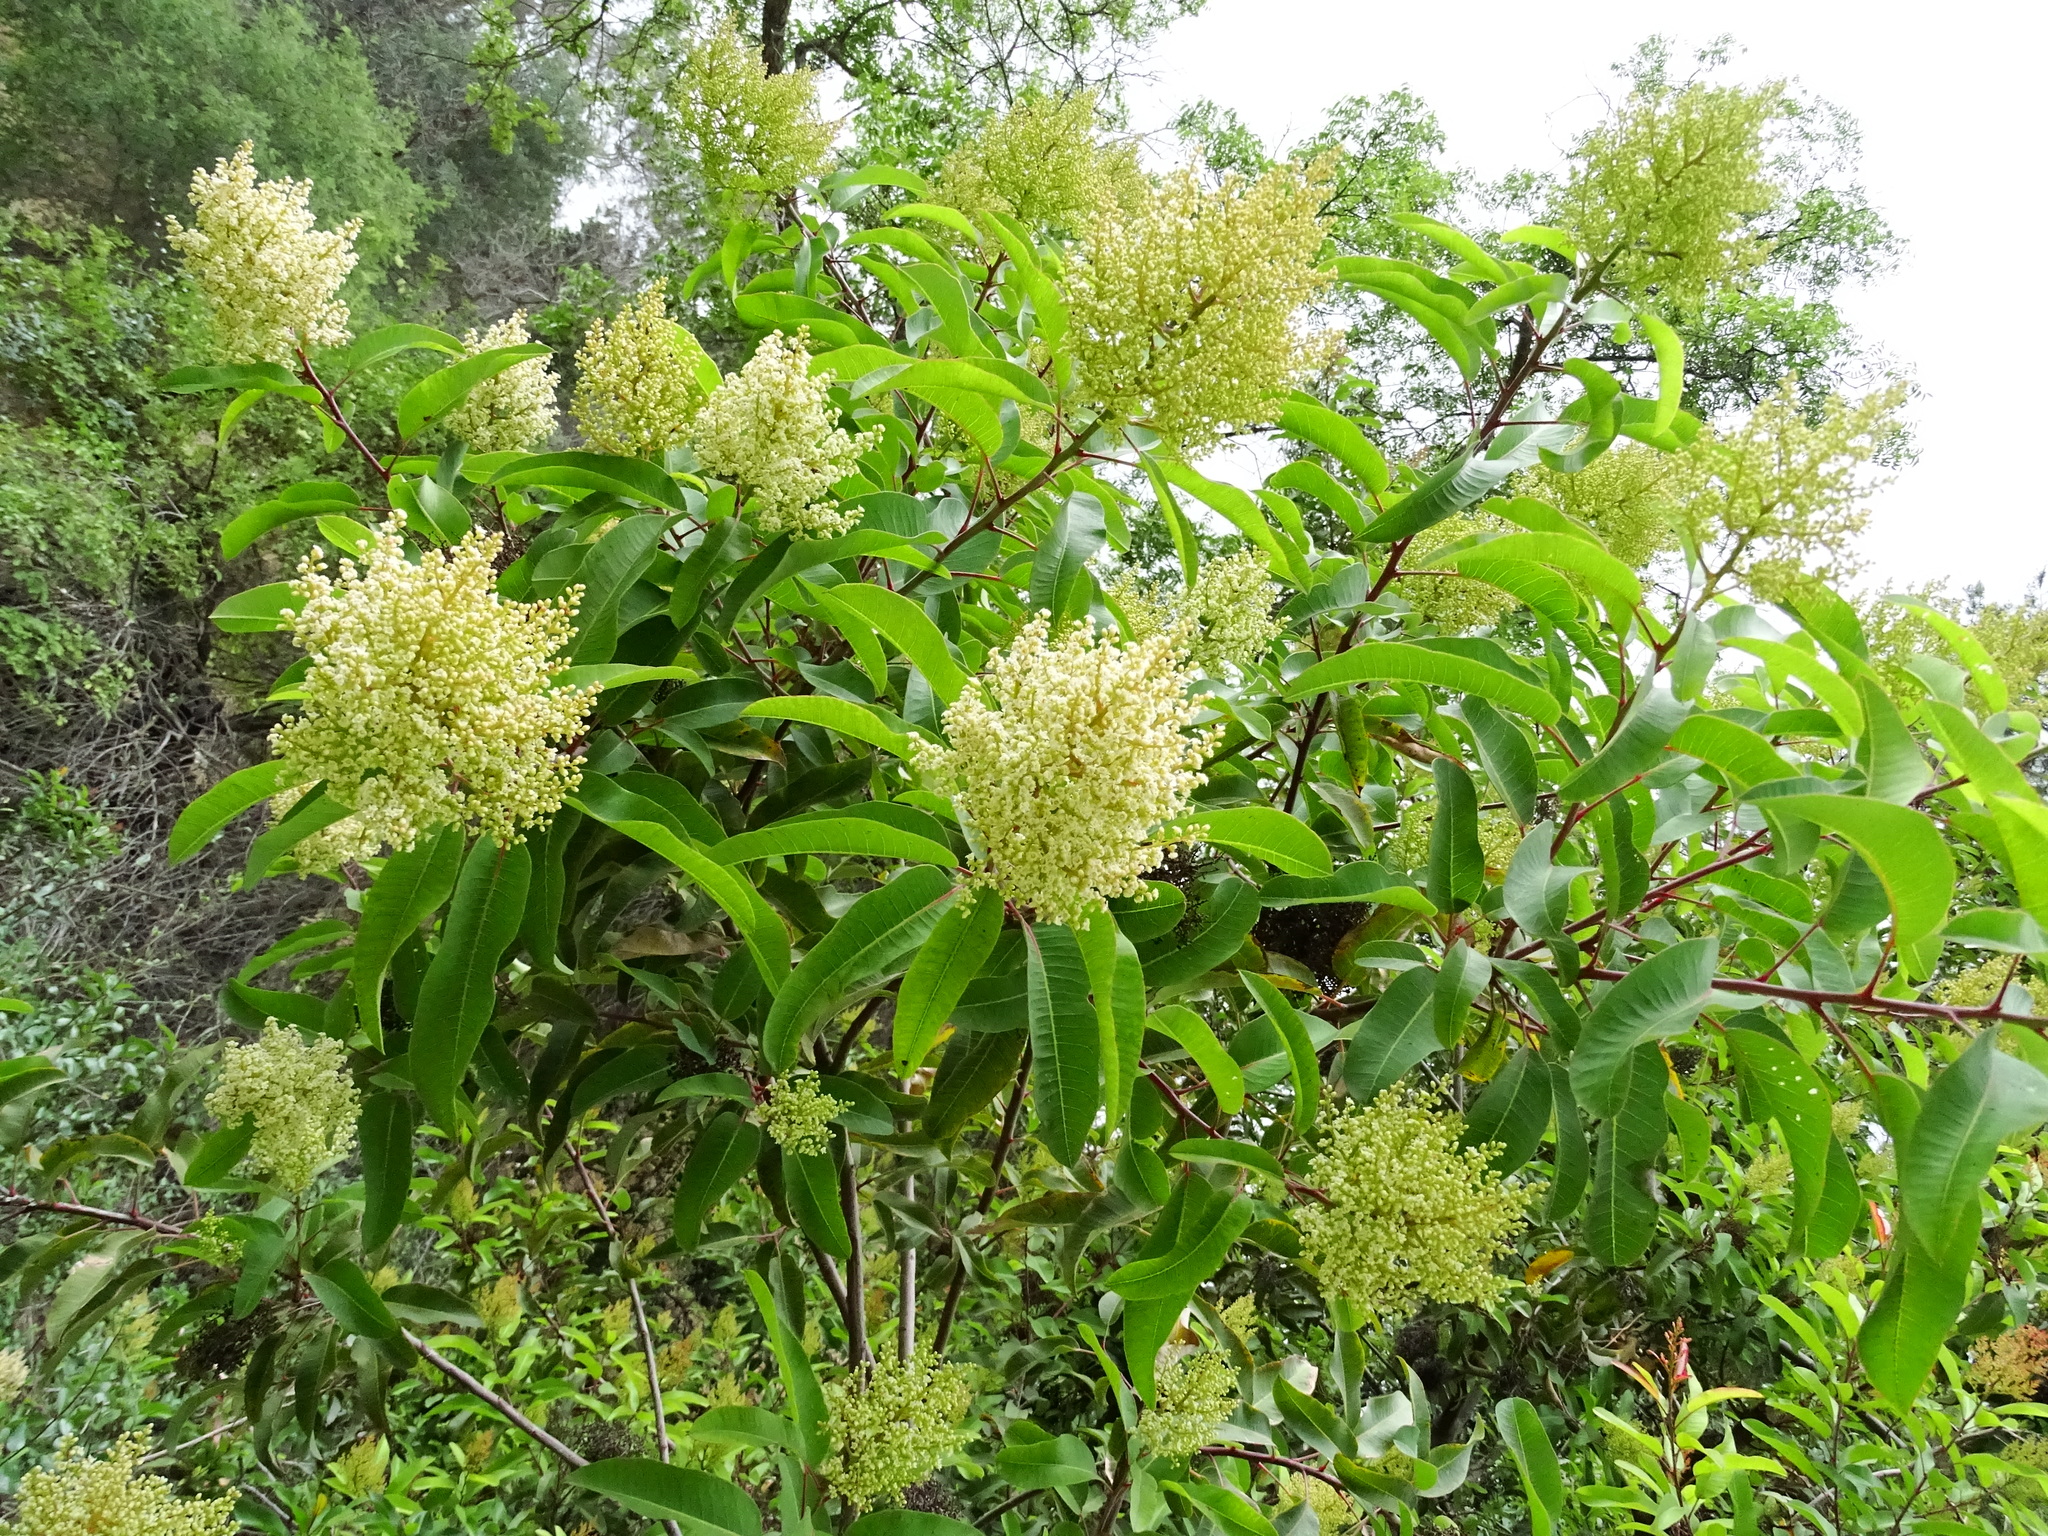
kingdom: Plantae
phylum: Tracheophyta
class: Magnoliopsida
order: Sapindales
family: Anacardiaceae
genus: Malosma
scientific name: Malosma laurina
